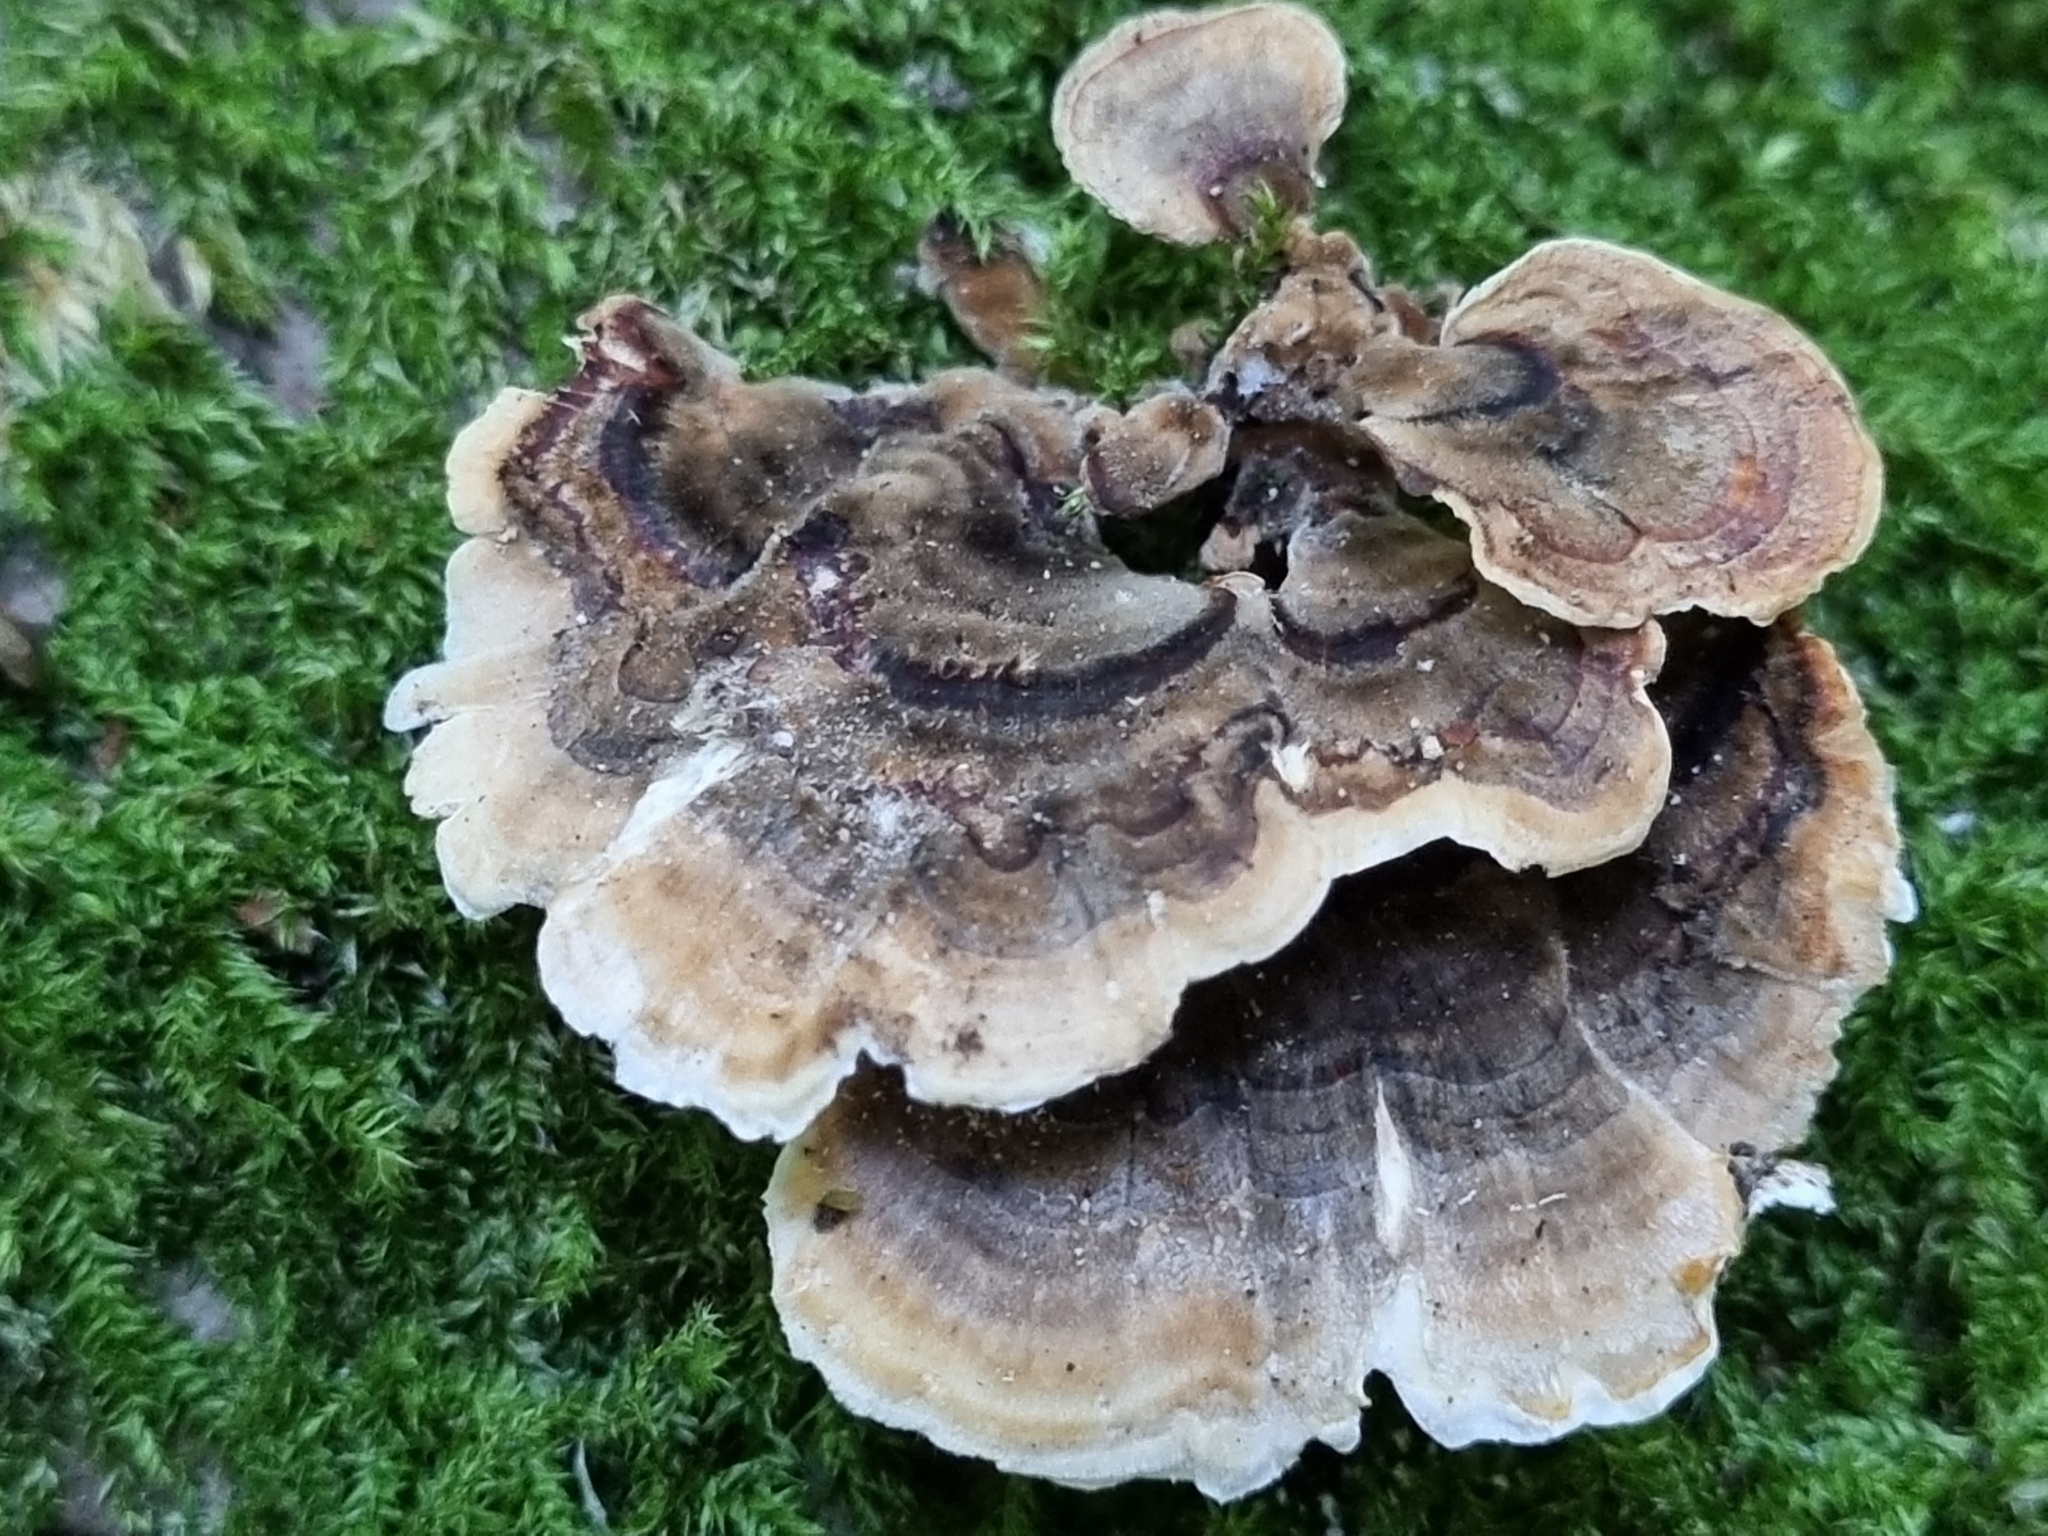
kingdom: Fungi
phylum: Basidiomycota
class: Agaricomycetes
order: Polyporales
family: Polyporaceae
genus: Trametes
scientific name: Trametes versicolor
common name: Turkeytail
